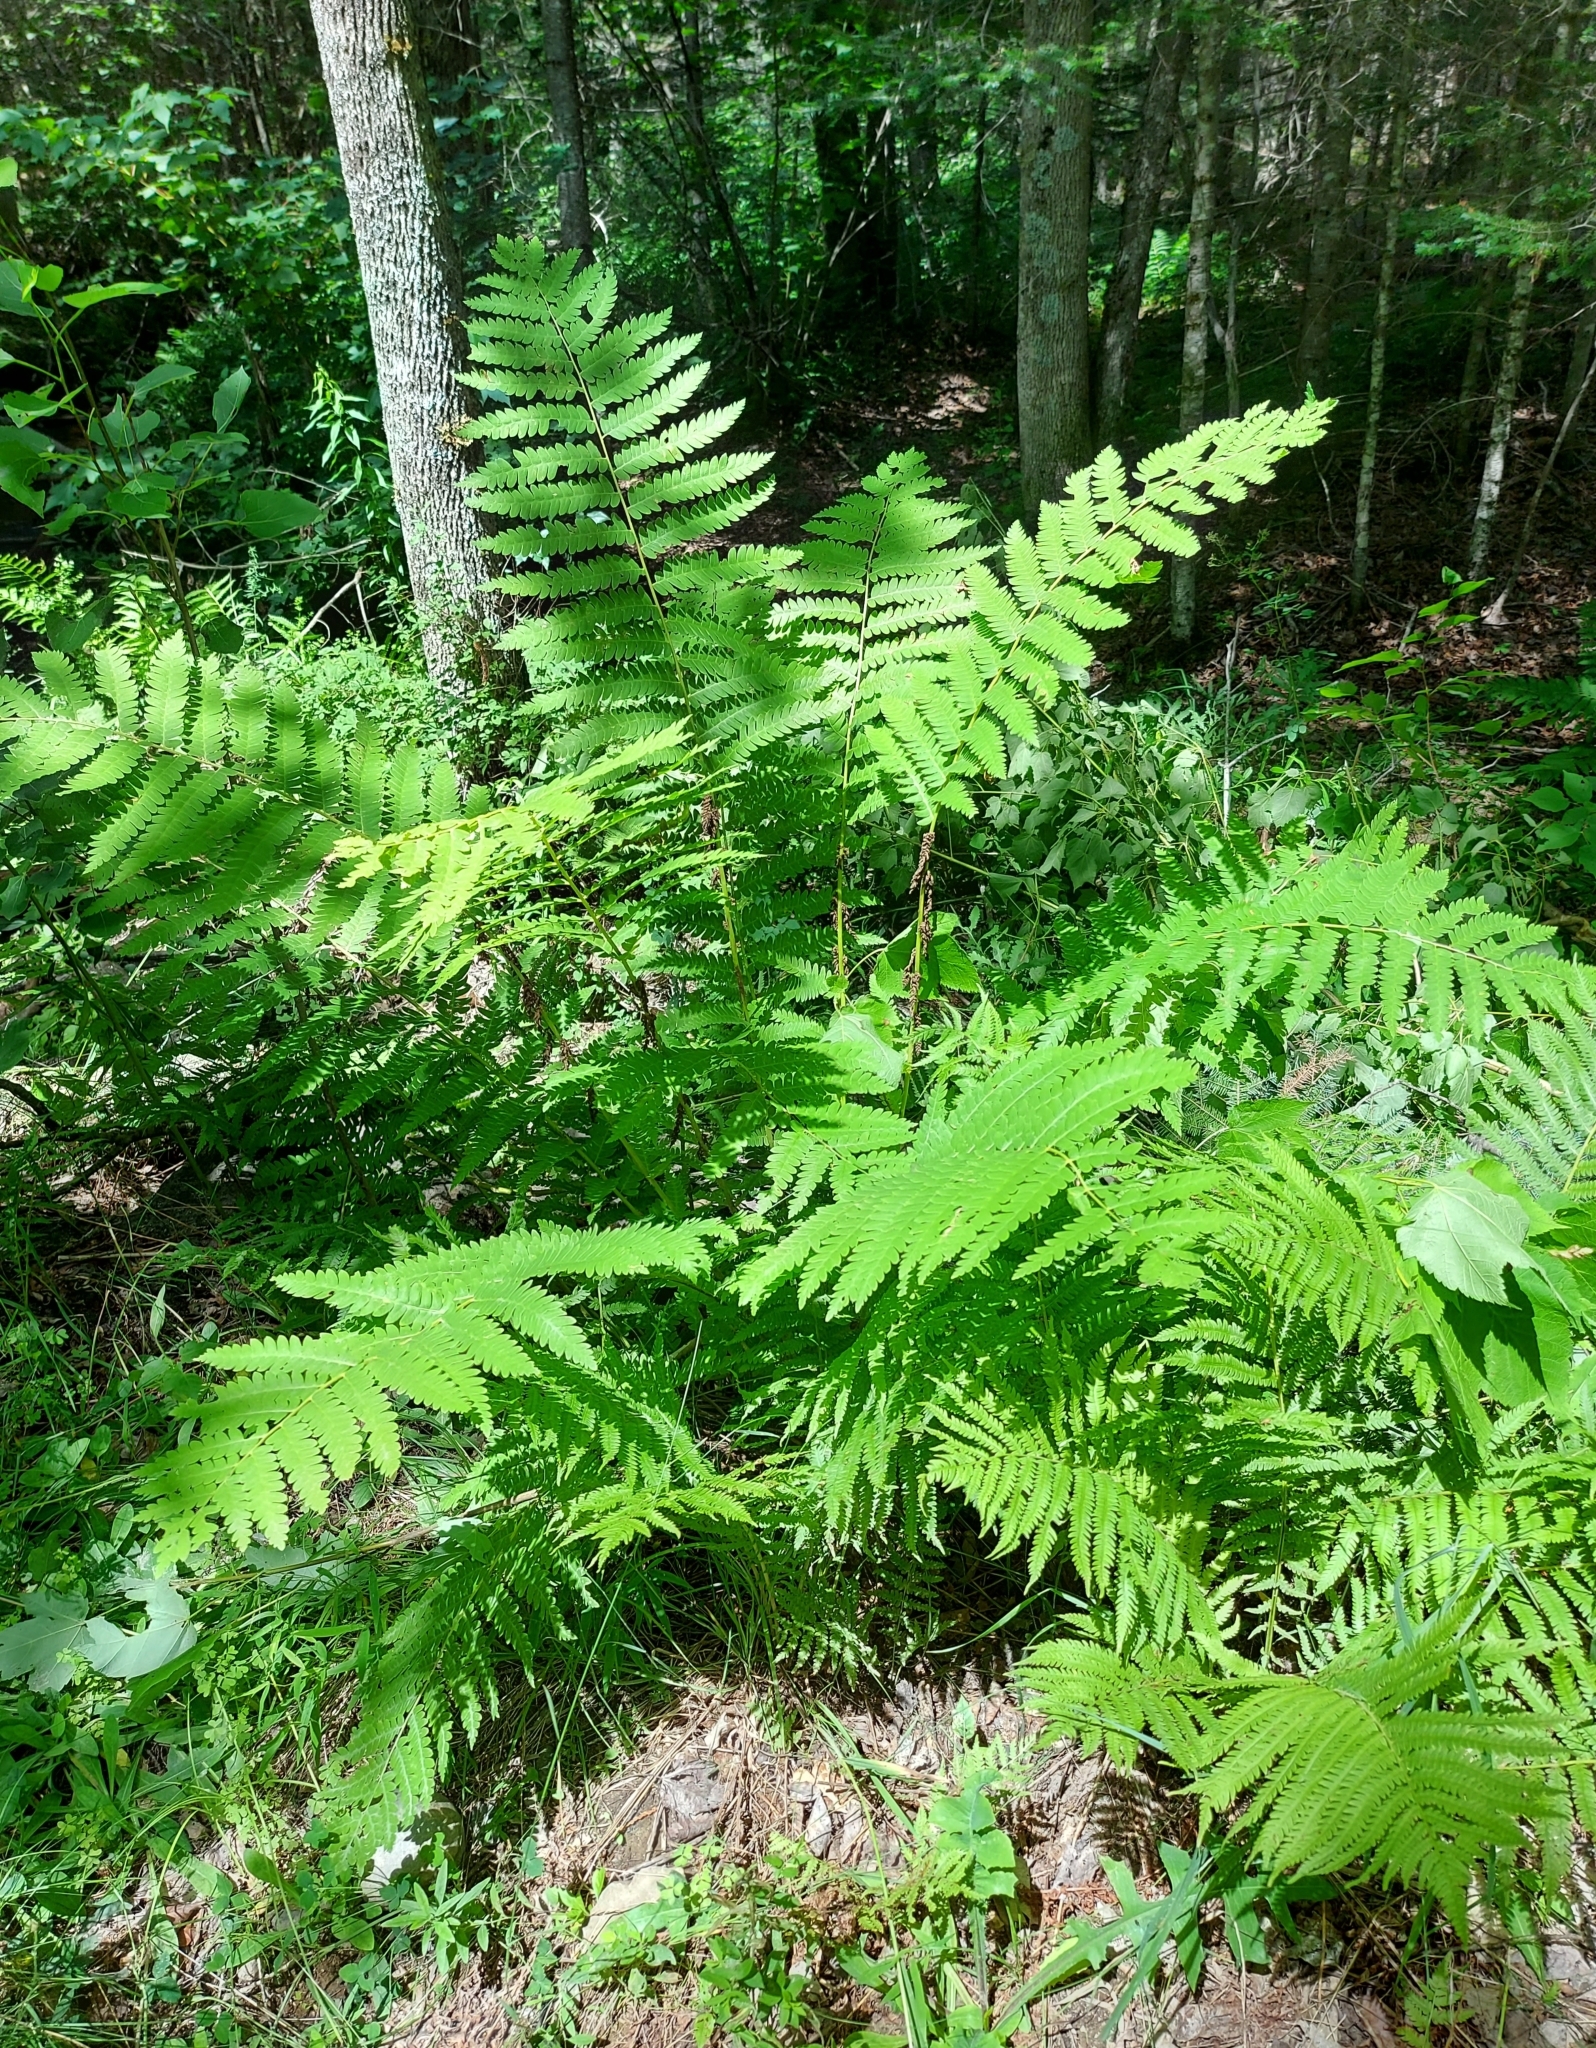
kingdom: Plantae
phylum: Tracheophyta
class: Polypodiopsida
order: Osmundales
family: Osmundaceae
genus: Claytosmunda
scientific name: Claytosmunda claytoniana
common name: Clayton's fern
